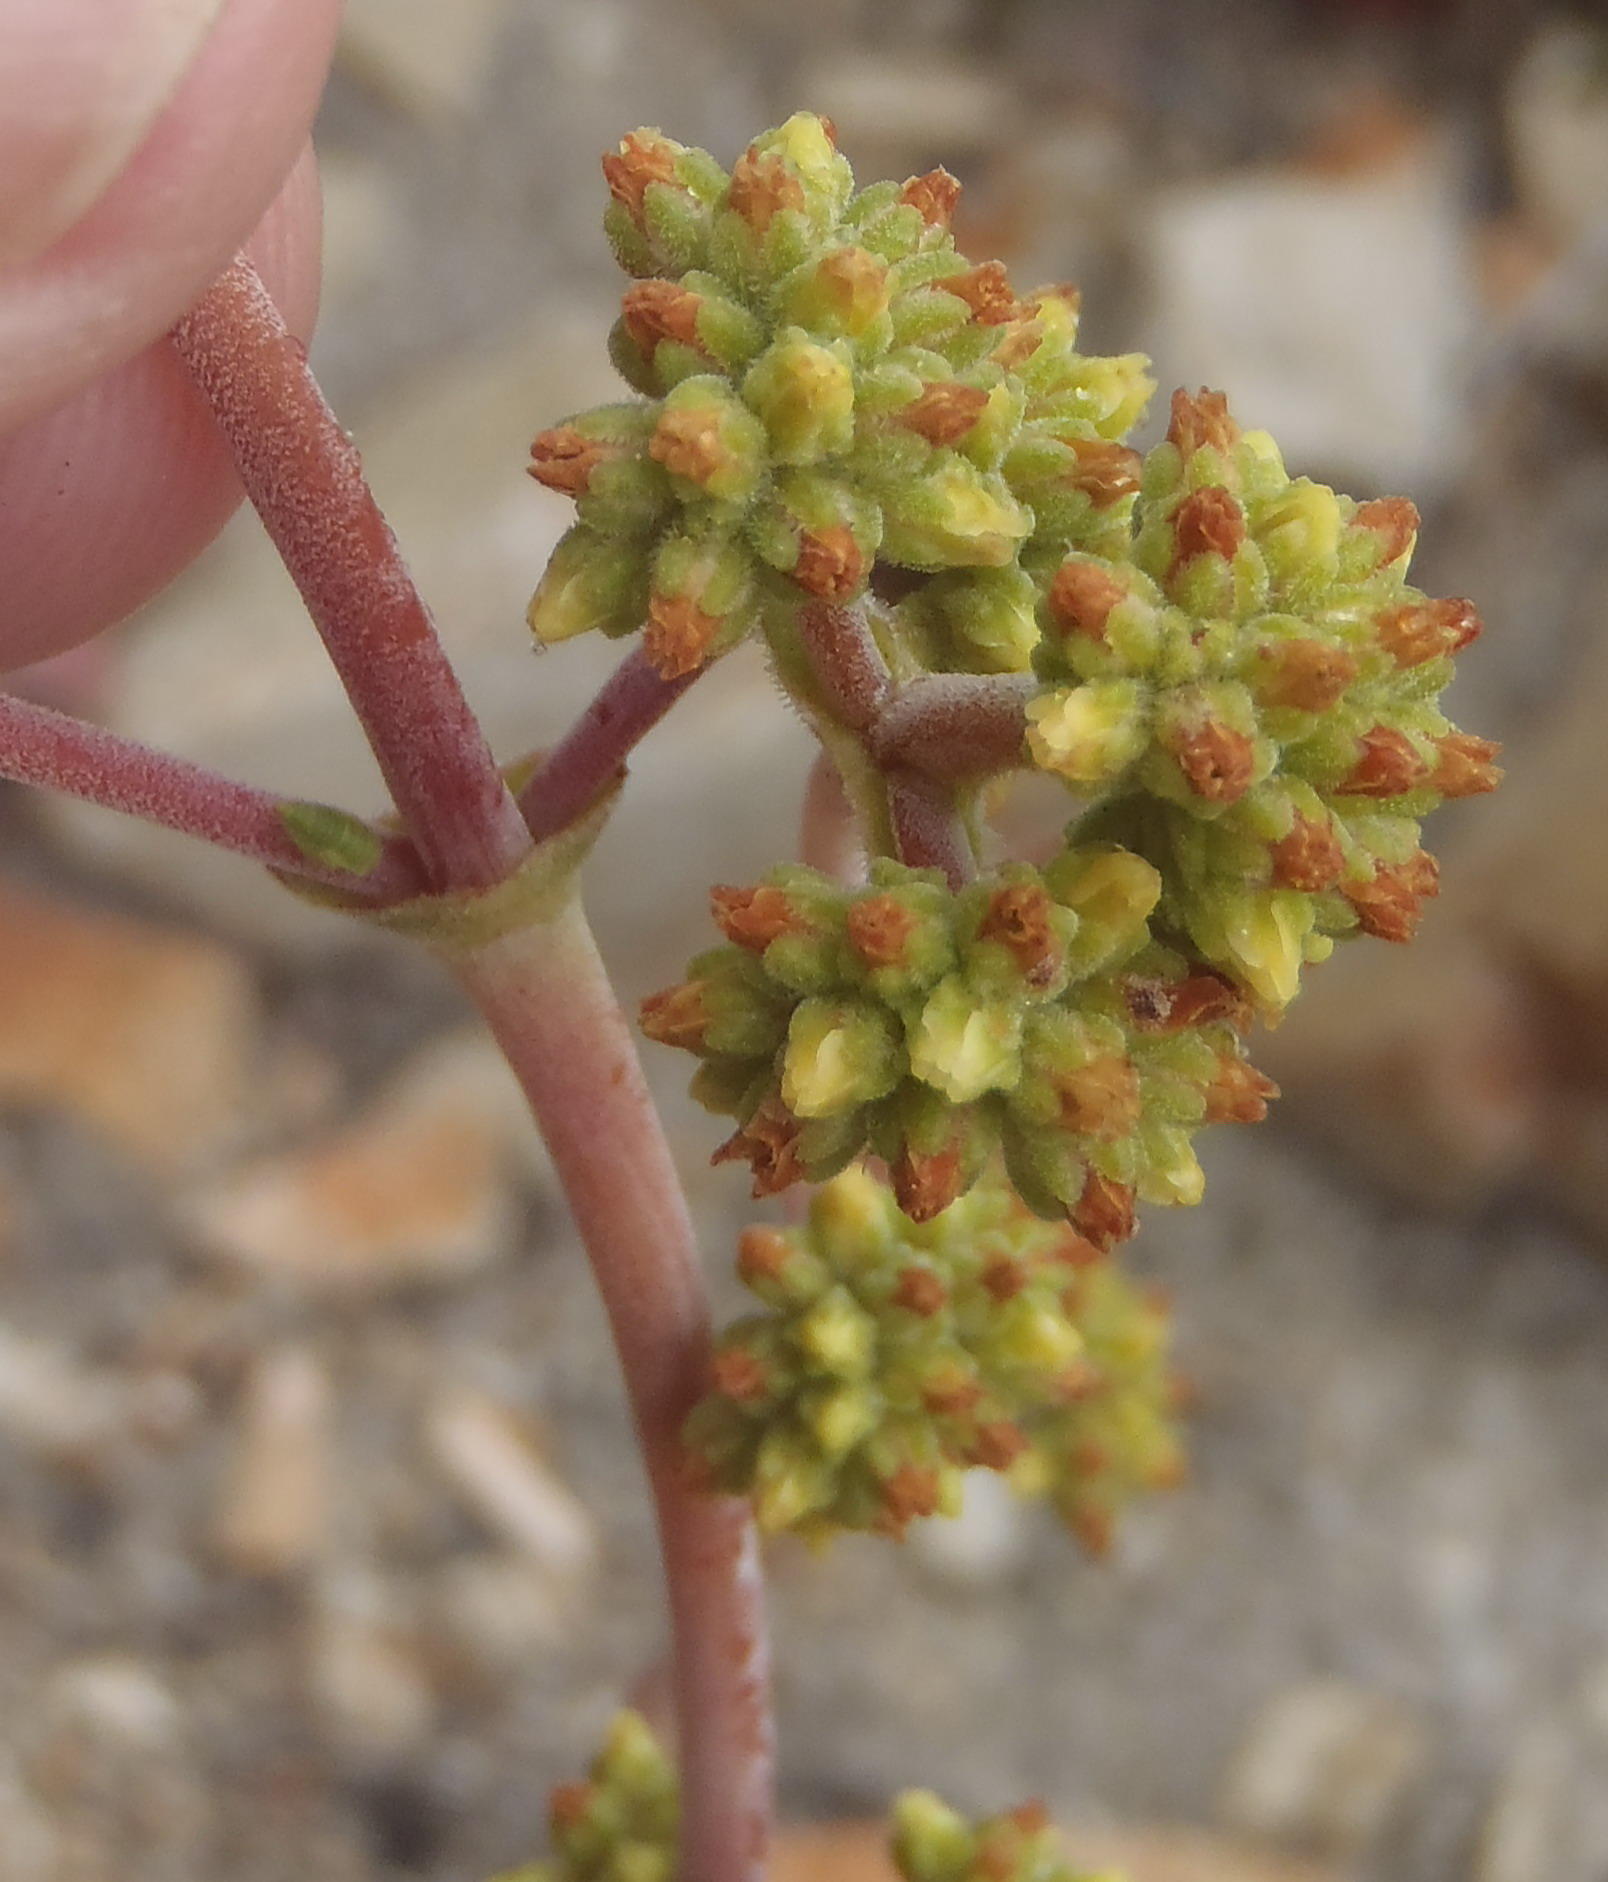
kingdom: Plantae
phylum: Tracheophyta
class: Magnoliopsida
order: Saxifragales
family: Crassulaceae
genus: Crassula
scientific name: Crassula cotyledonis
